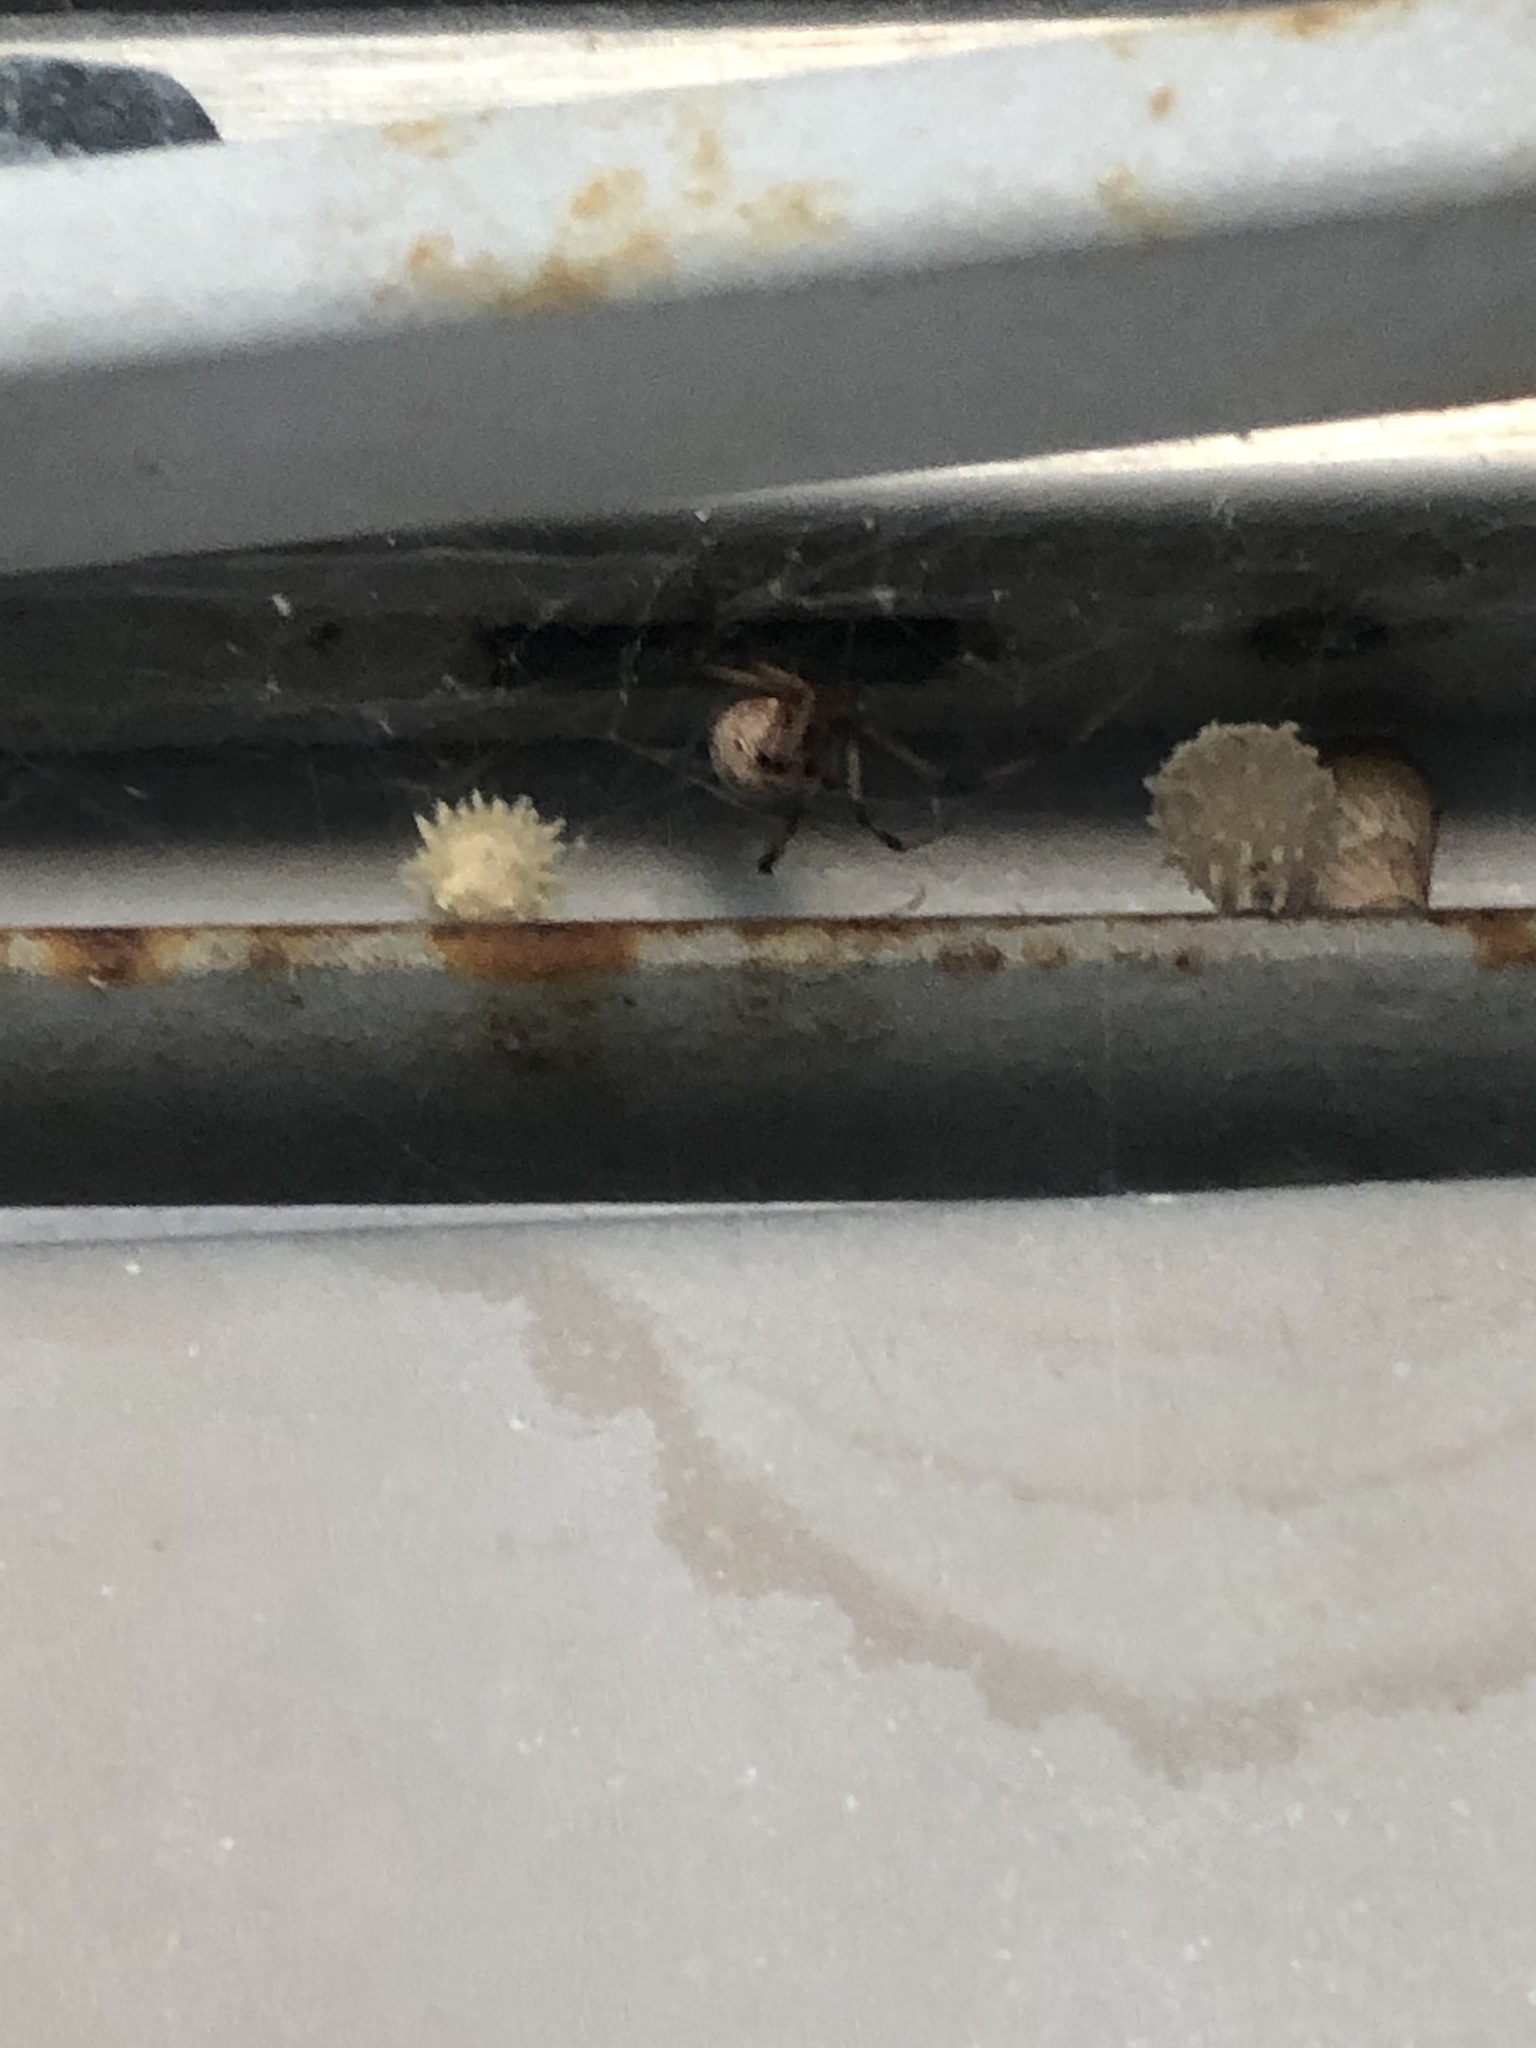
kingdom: Animalia
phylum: Arthropoda
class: Arachnida
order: Araneae
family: Theridiidae
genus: Latrodectus
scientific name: Latrodectus geometricus
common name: Brown widow spider
